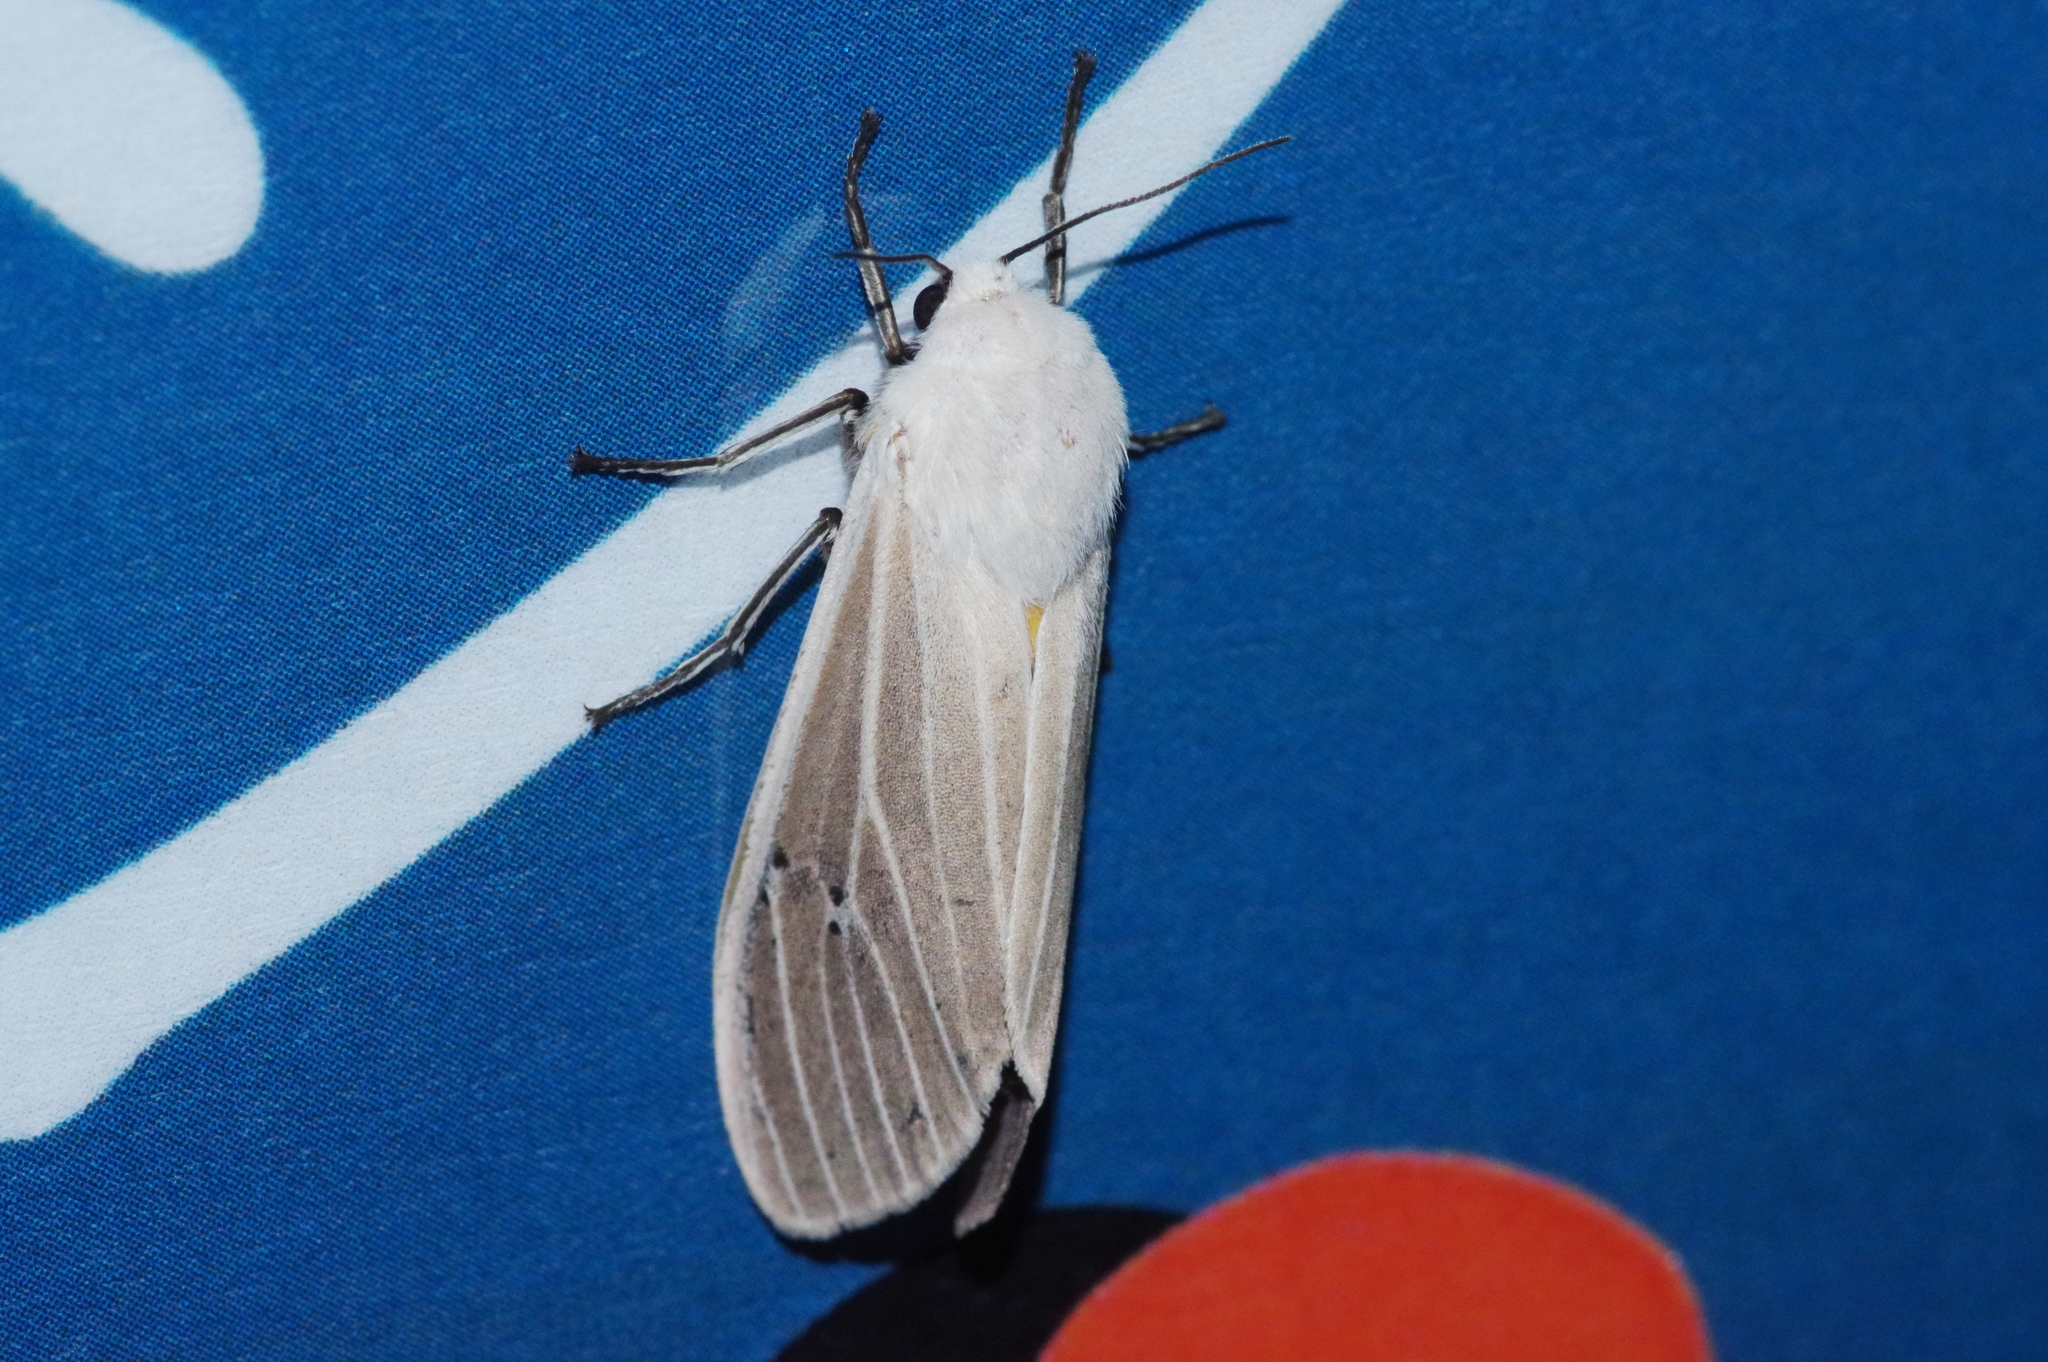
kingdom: Animalia
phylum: Arthropoda
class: Insecta
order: Lepidoptera
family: Erebidae
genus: Creatonotos
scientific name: Creatonotos transiens
